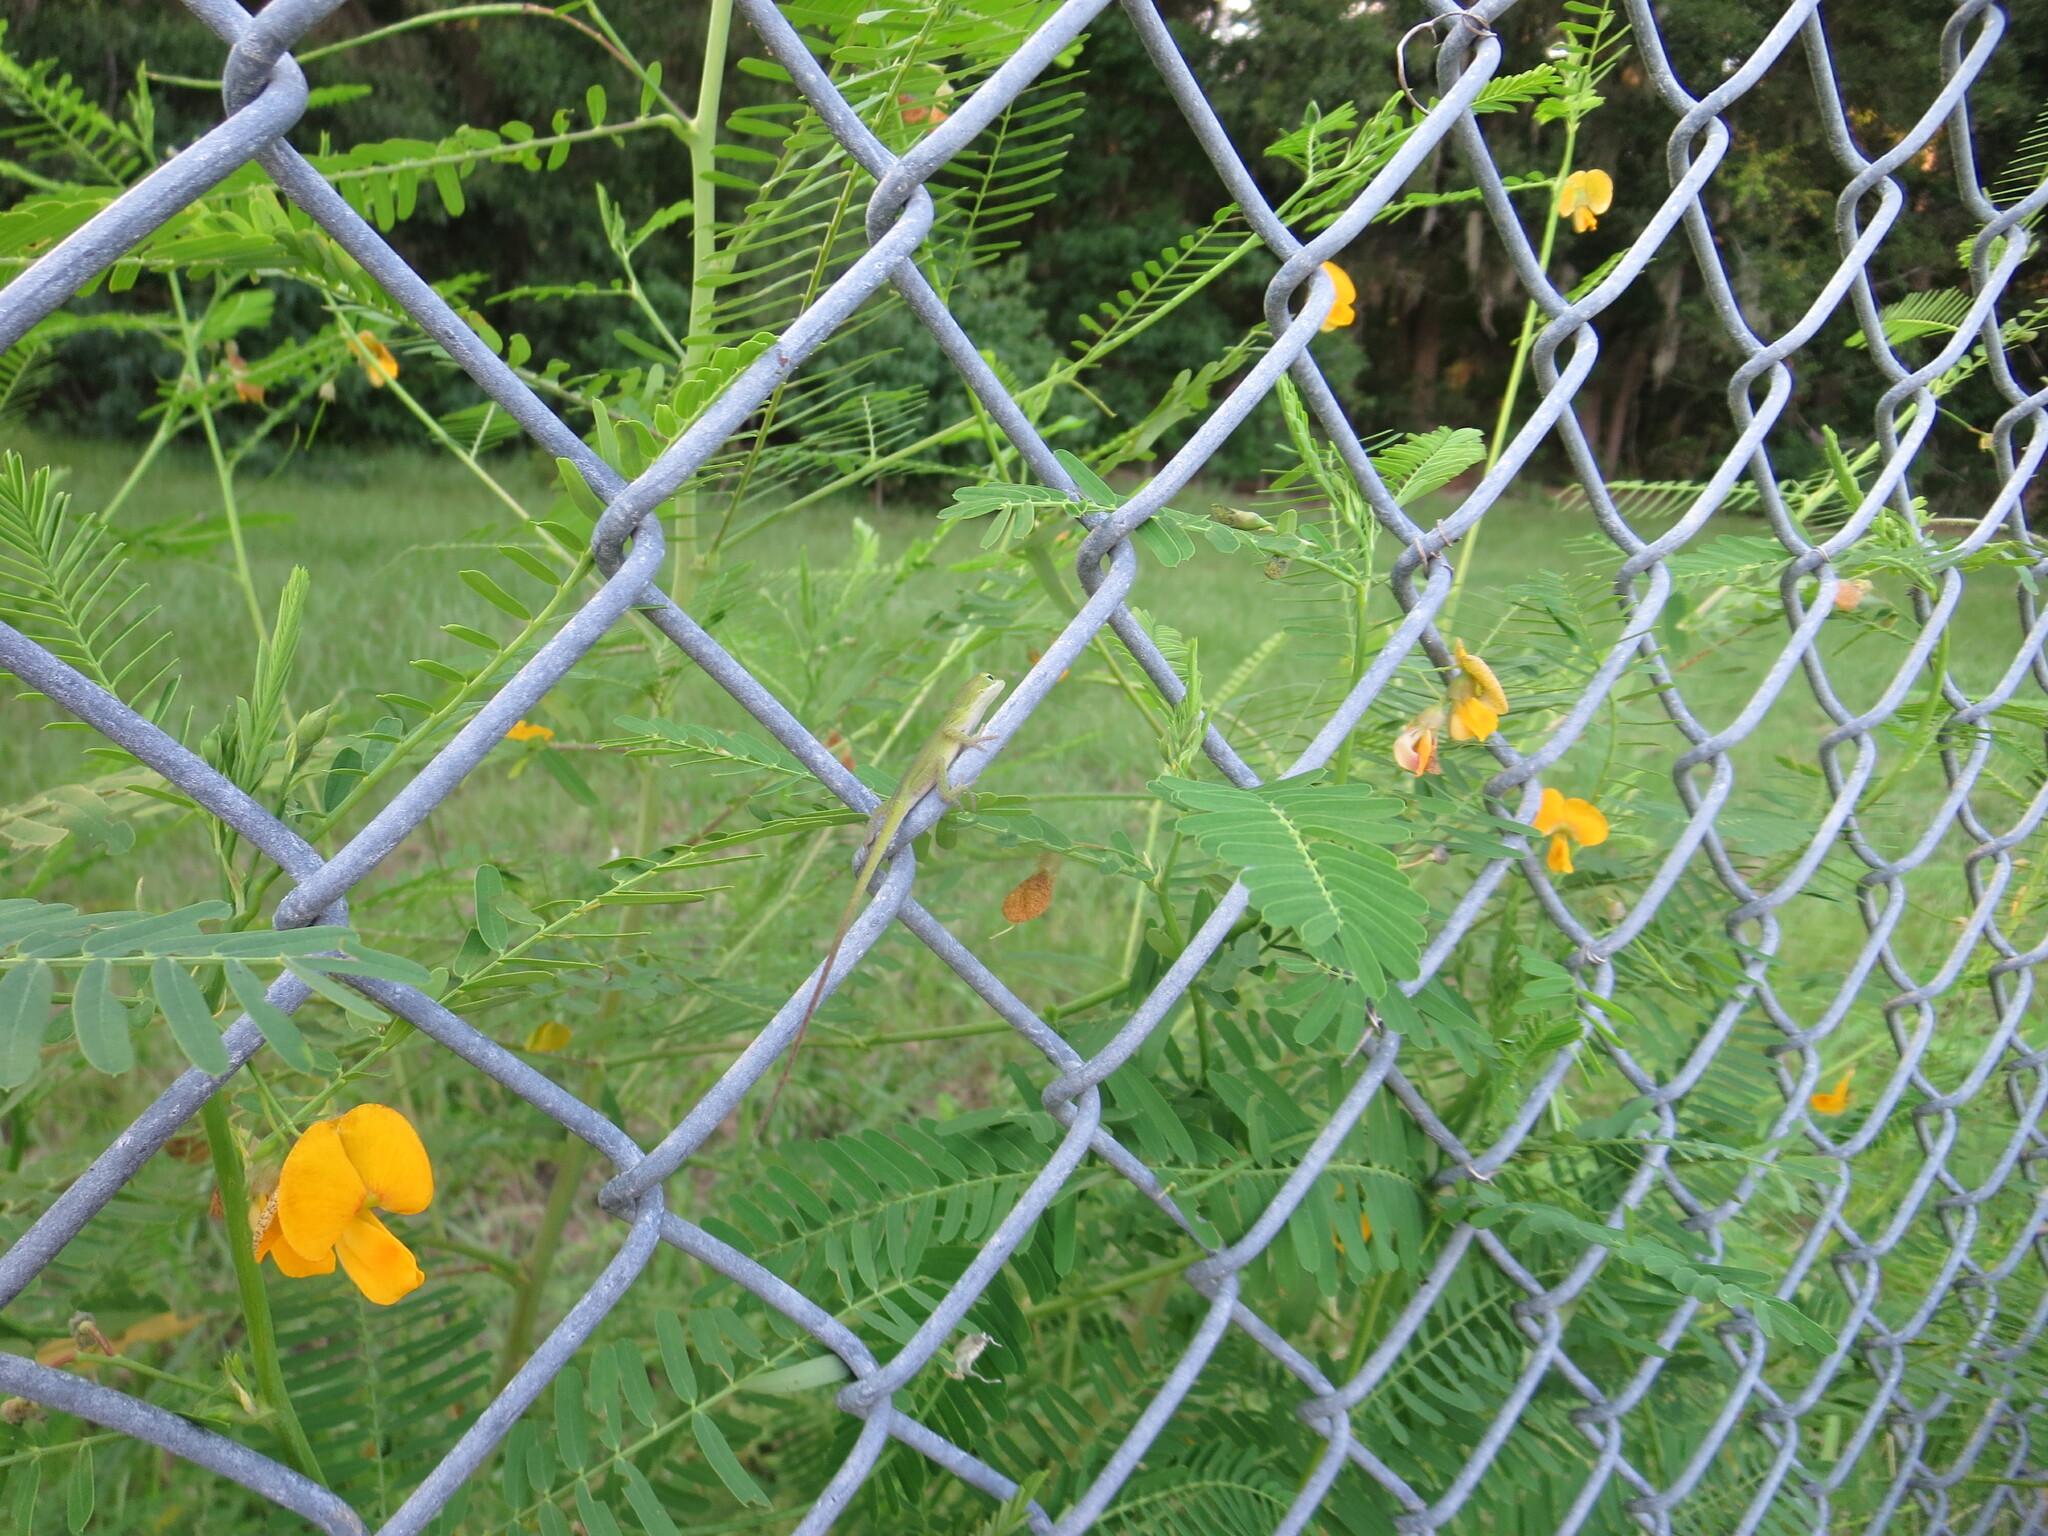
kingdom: Animalia
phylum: Chordata
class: Squamata
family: Dactyloidae
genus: Anolis
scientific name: Anolis carolinensis
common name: Green anole
